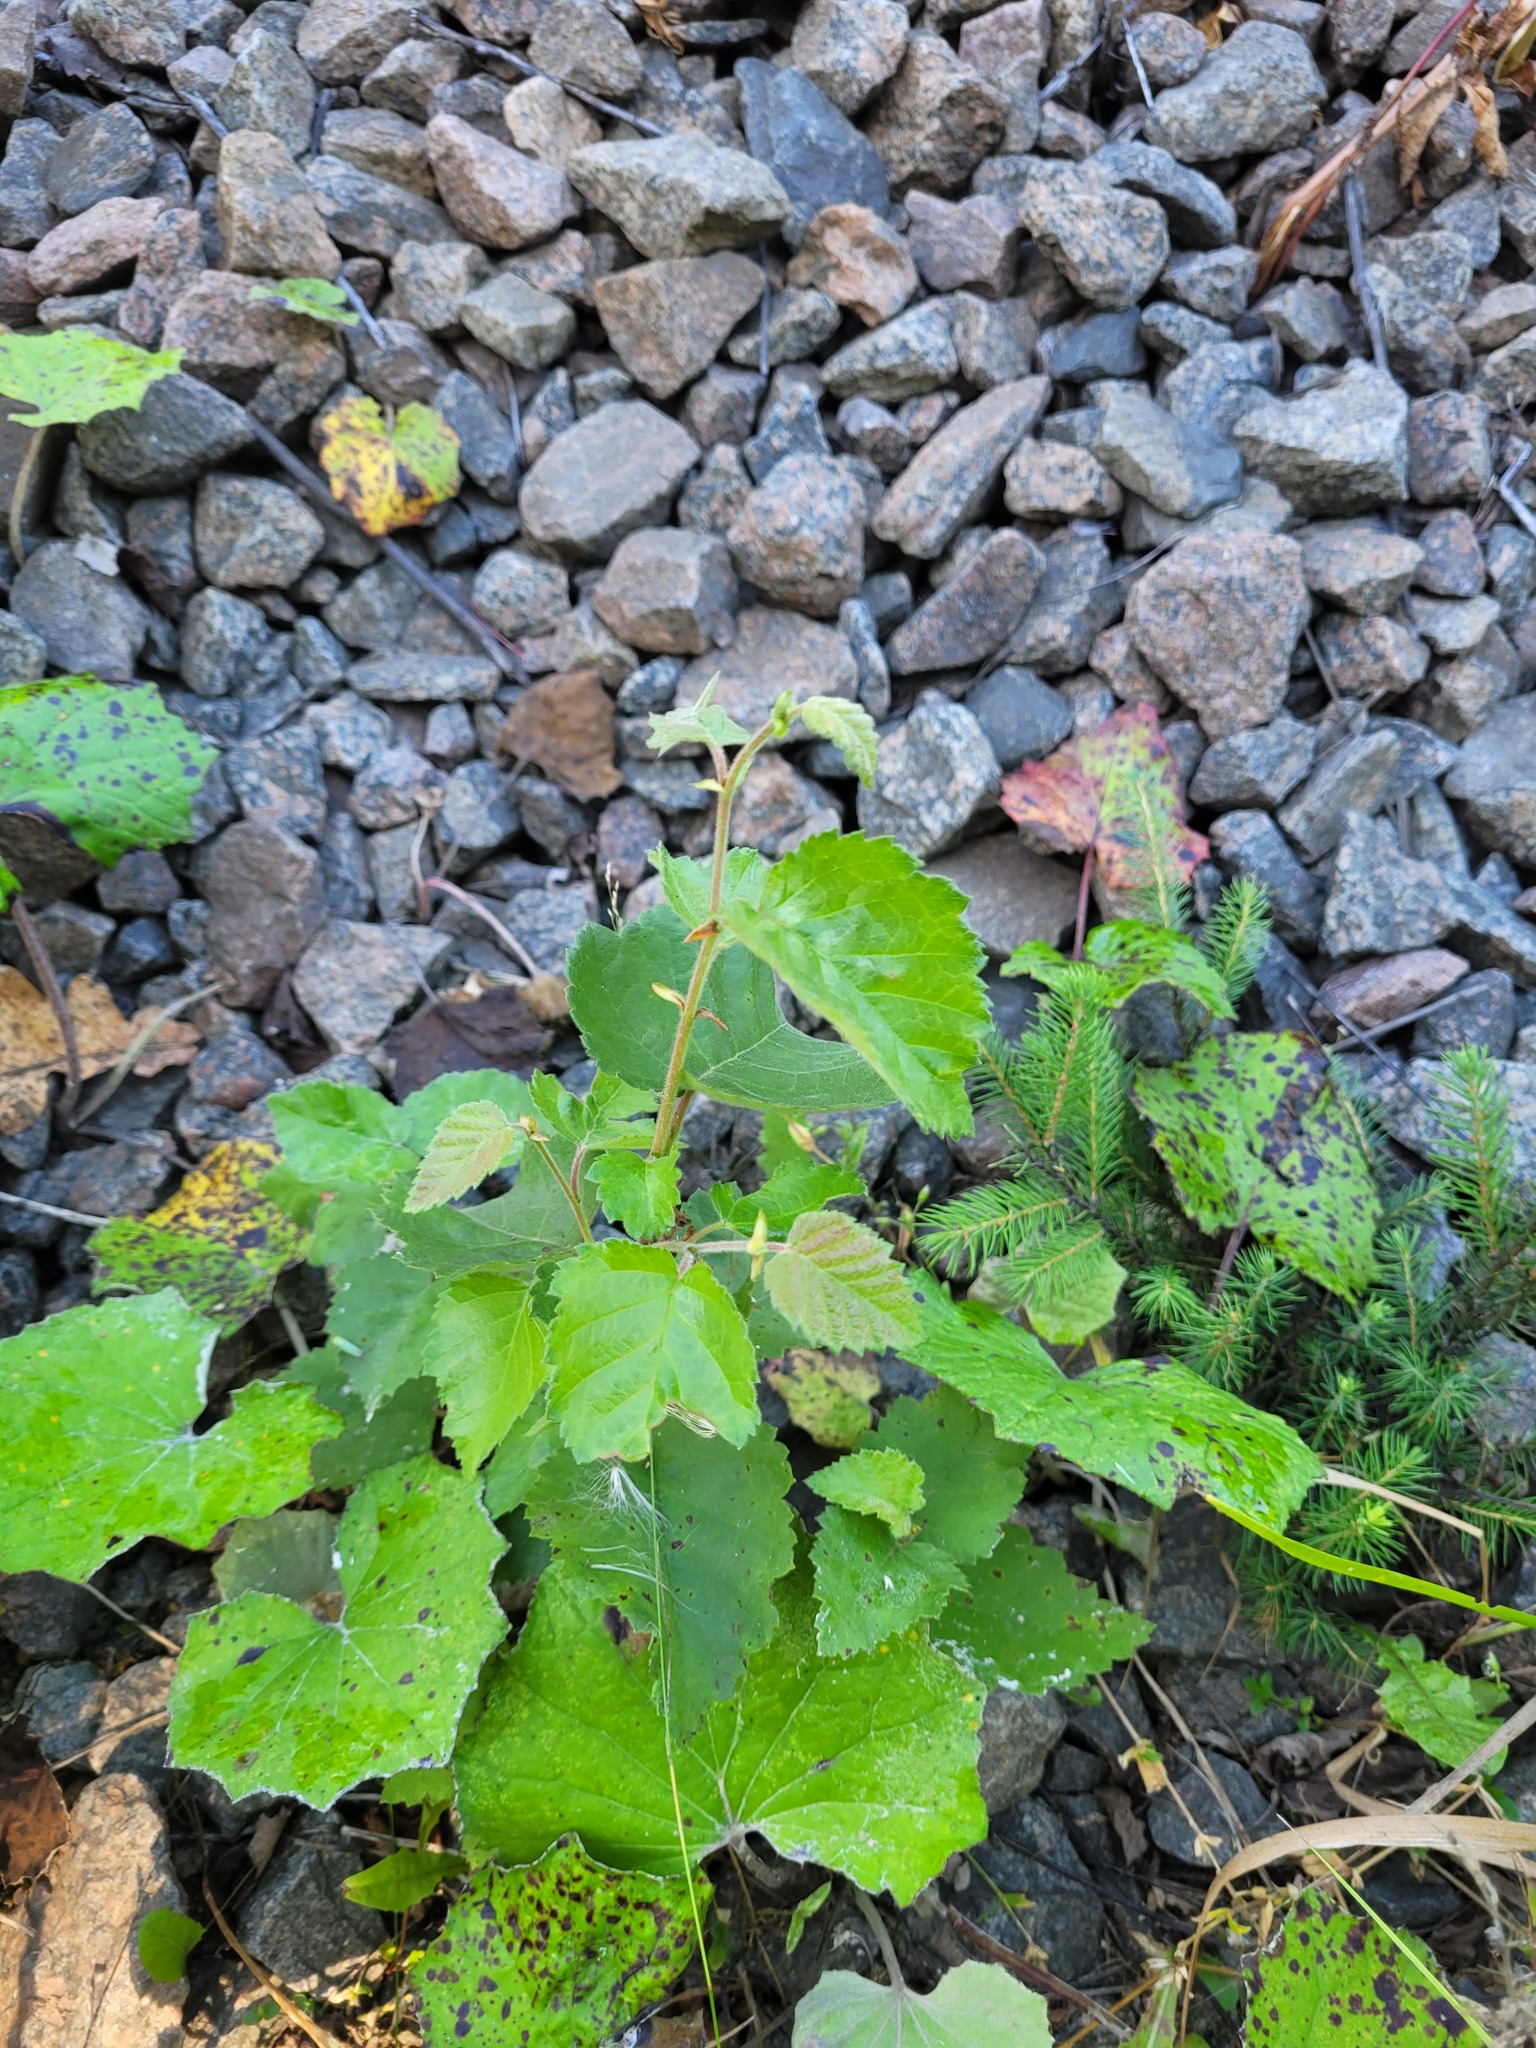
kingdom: Plantae
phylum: Tracheophyta
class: Magnoliopsida
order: Fagales
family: Betulaceae
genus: Betula
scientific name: Betula pubescens
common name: Downy birch
